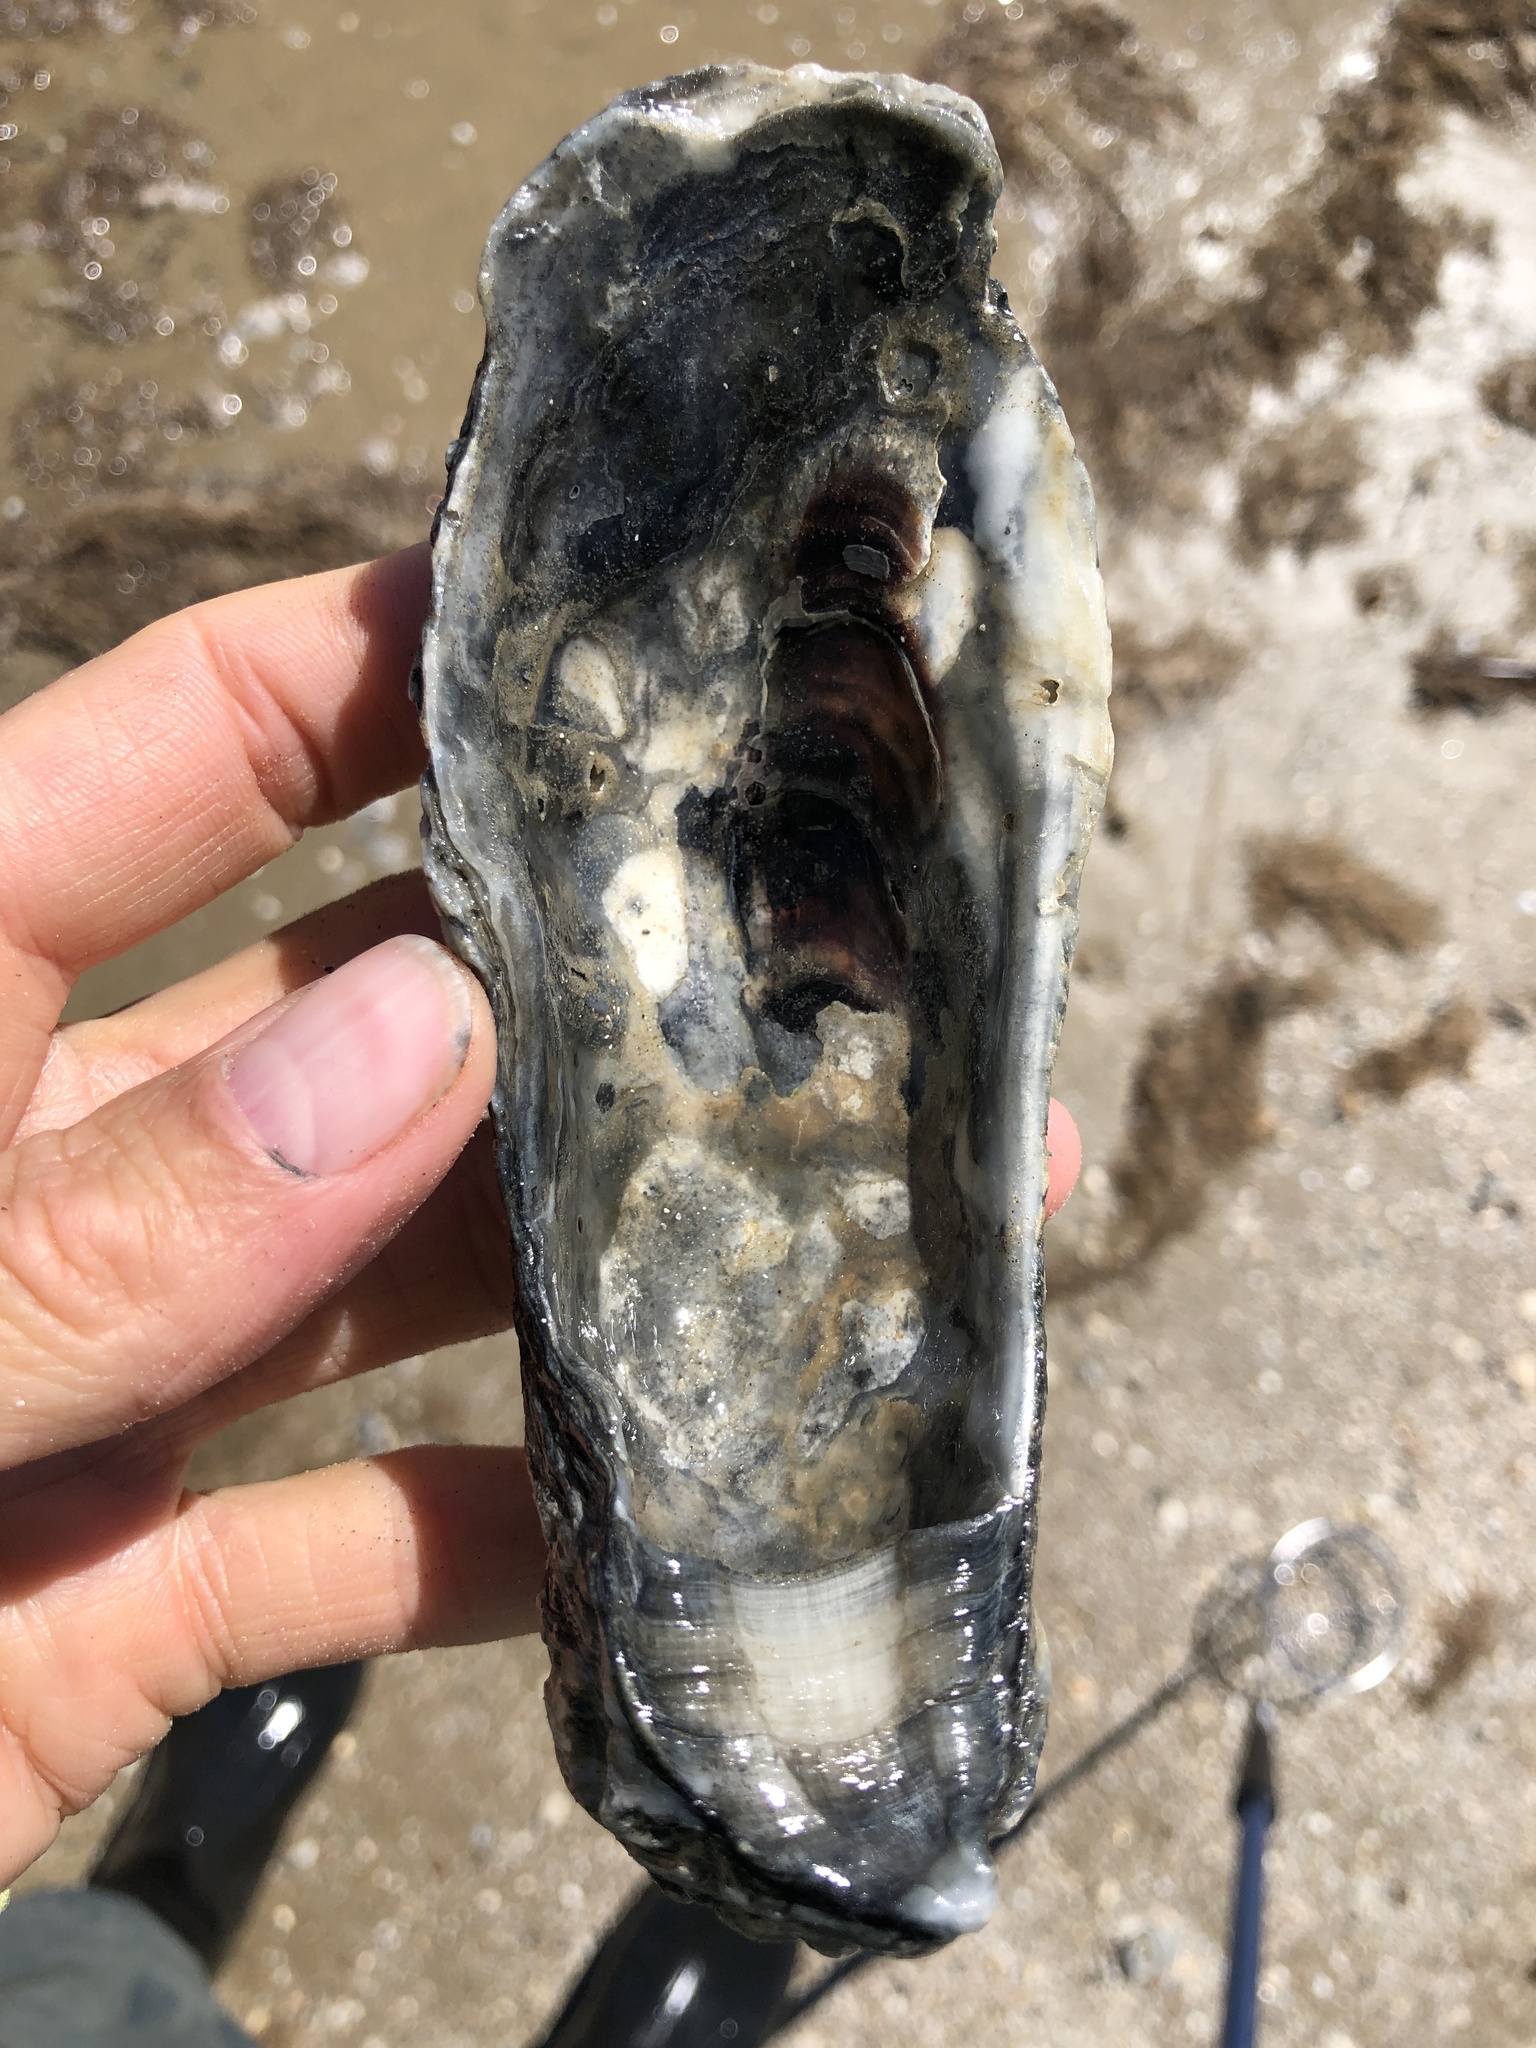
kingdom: Animalia
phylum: Mollusca
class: Bivalvia
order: Ostreida
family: Ostreidae
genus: Crassostrea
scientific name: Crassostrea virginica
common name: American oyster
